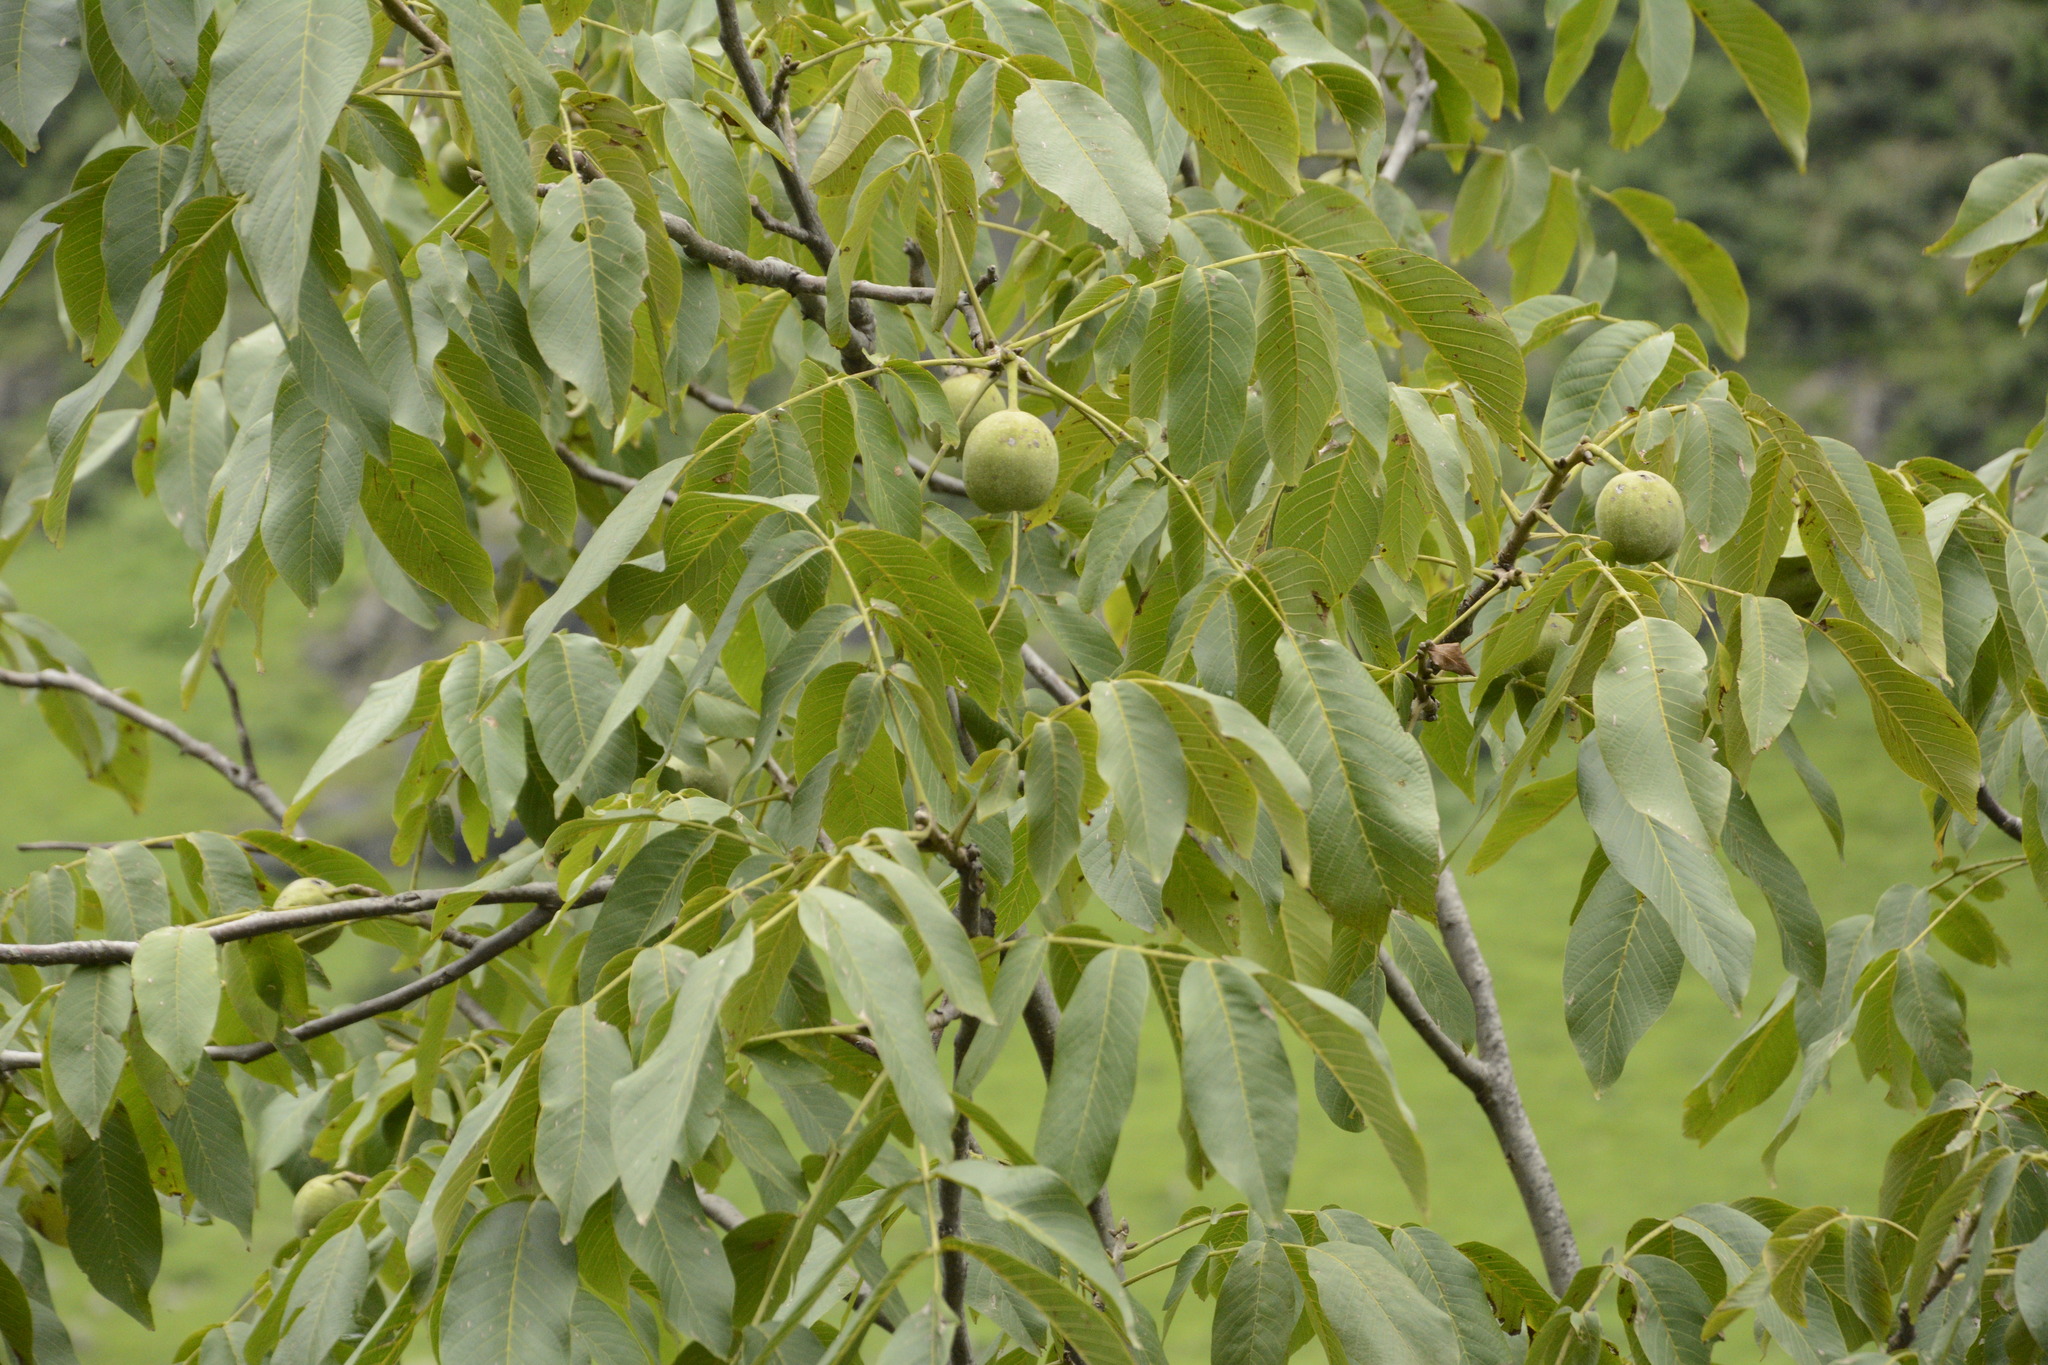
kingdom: Plantae
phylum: Tracheophyta
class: Magnoliopsida
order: Fagales
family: Juglandaceae
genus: Juglans
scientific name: Juglans regia
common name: Walnut
